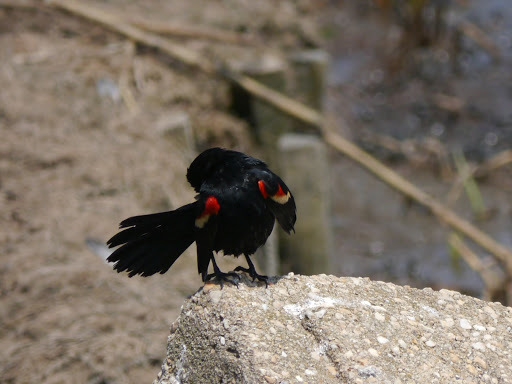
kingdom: Animalia
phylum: Chordata
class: Aves
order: Passeriformes
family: Icteridae
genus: Agelaius
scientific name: Agelaius phoeniceus
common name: Red-winged blackbird
